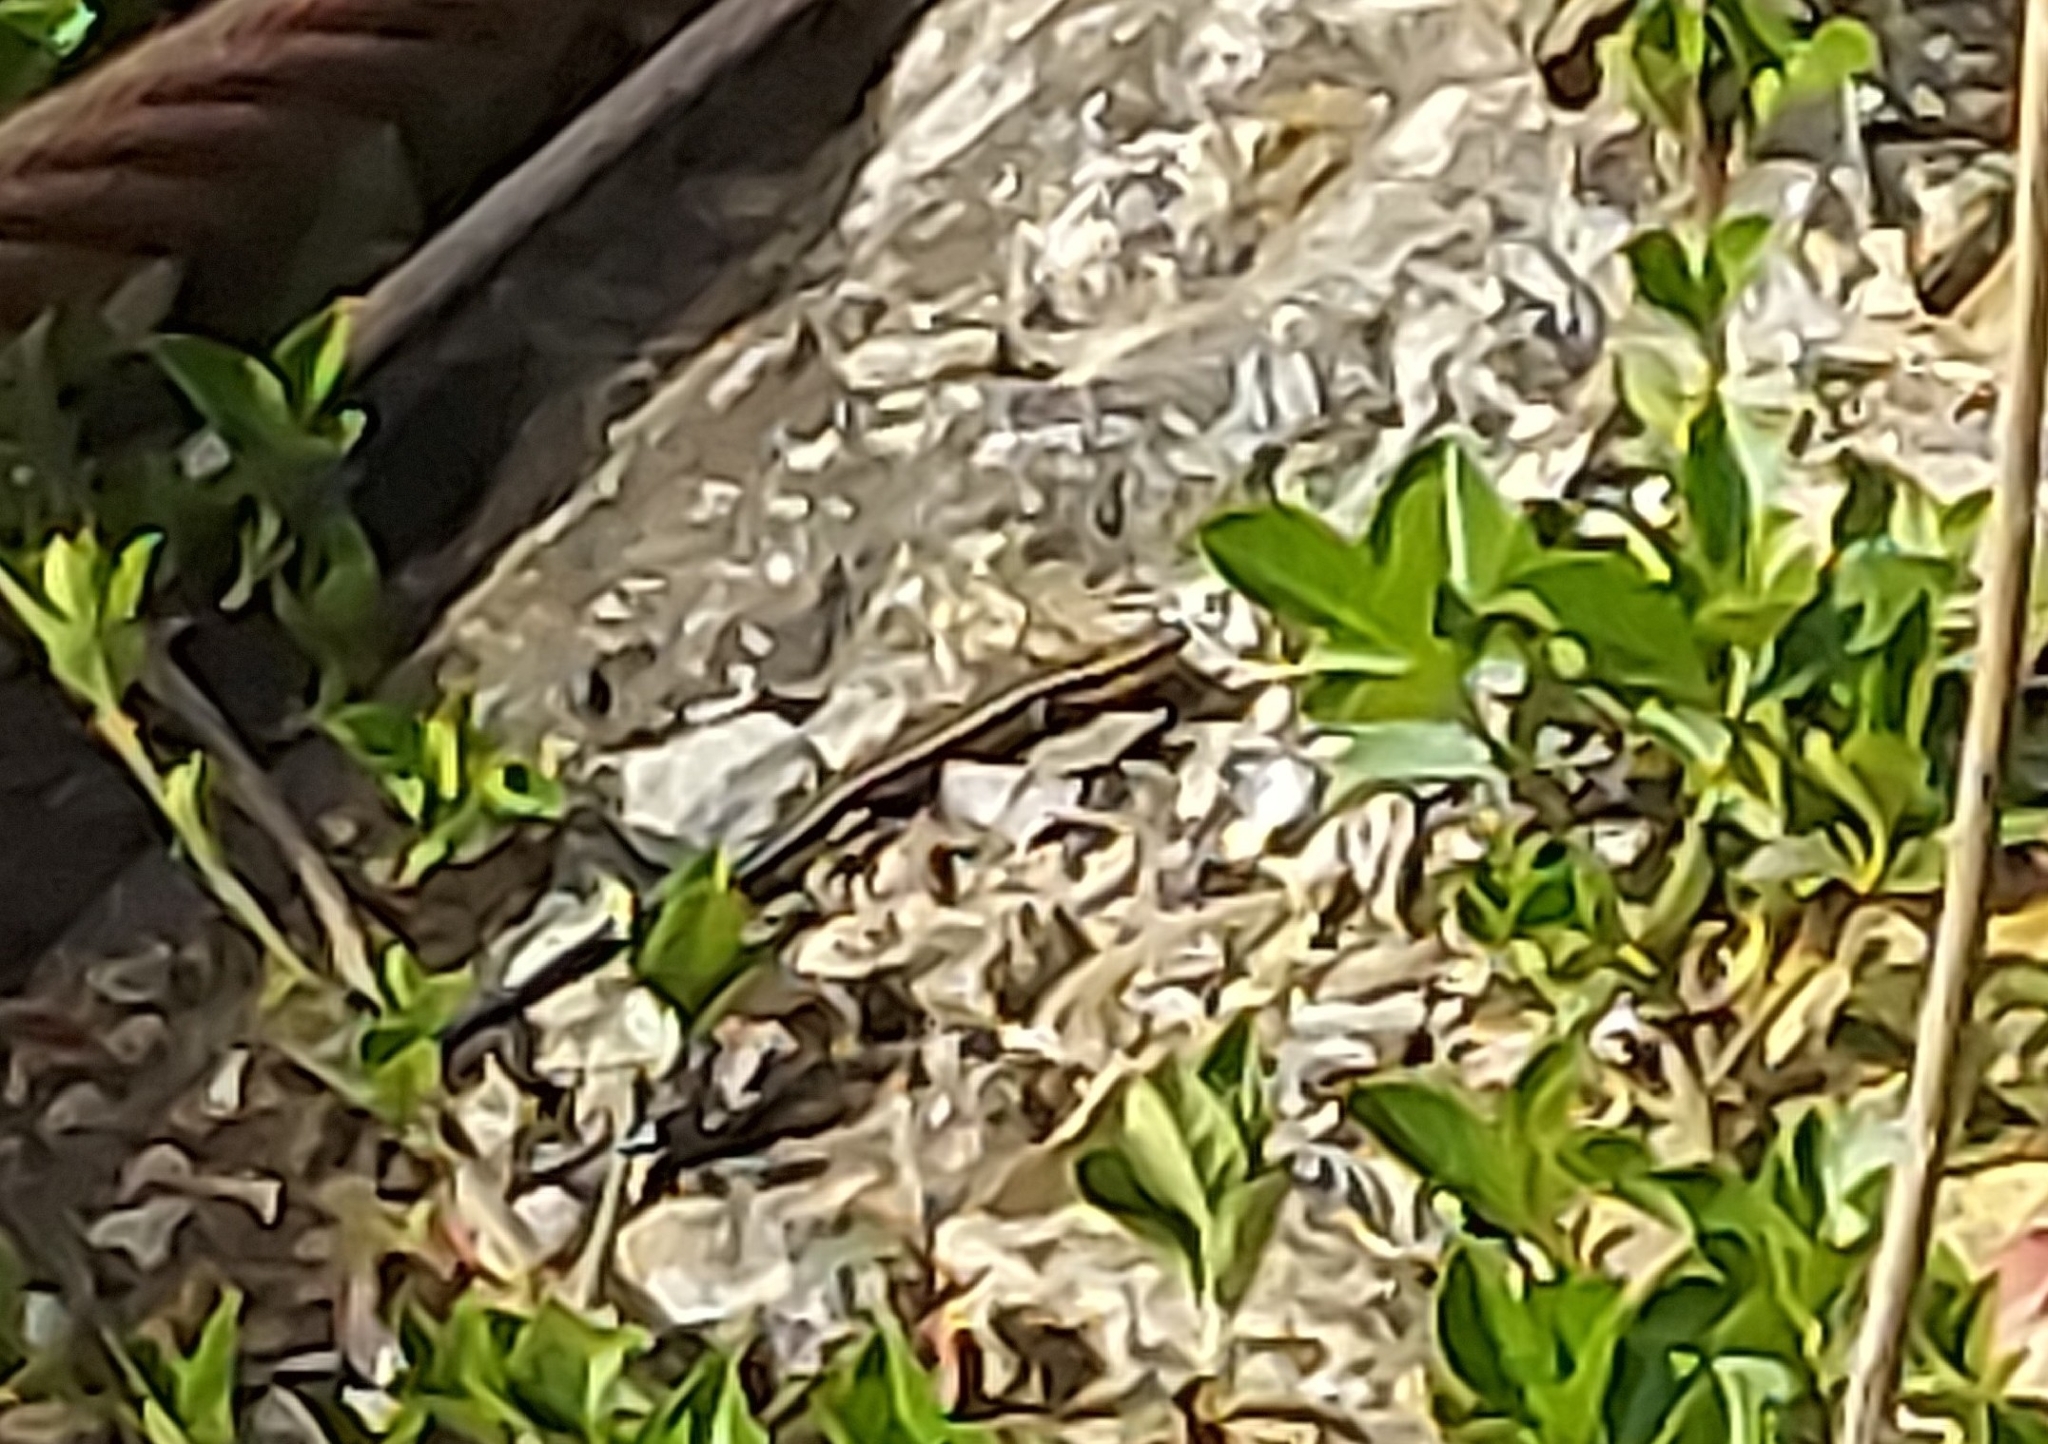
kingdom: Animalia
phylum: Chordata
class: Squamata
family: Scincidae
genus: Plestiodon
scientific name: Plestiodon fasciatus
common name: Five-lined skink
